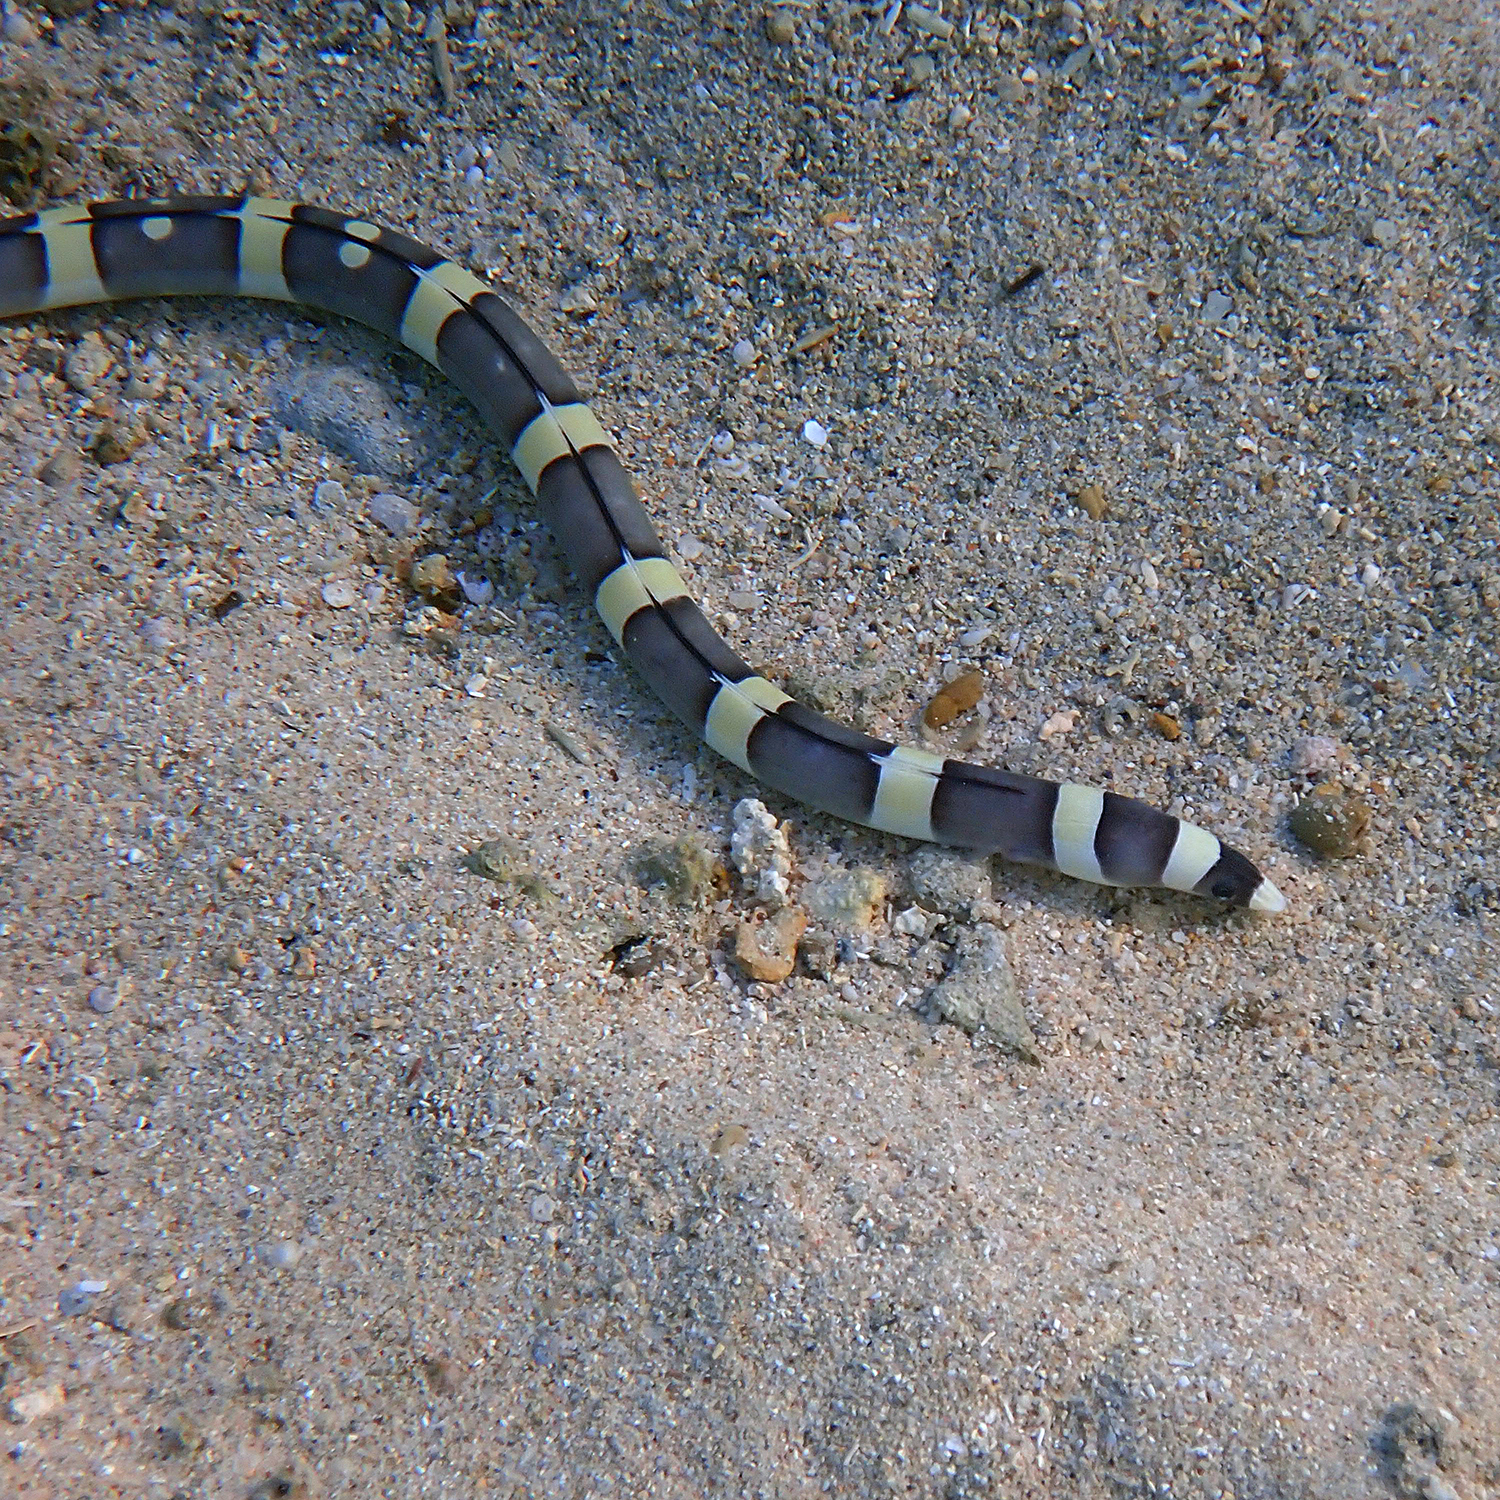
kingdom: Animalia
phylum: Chordata
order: Anguilliformes
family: Ophichthidae
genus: Leiuranus
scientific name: Leiuranus versicolor
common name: Convict snake eel
